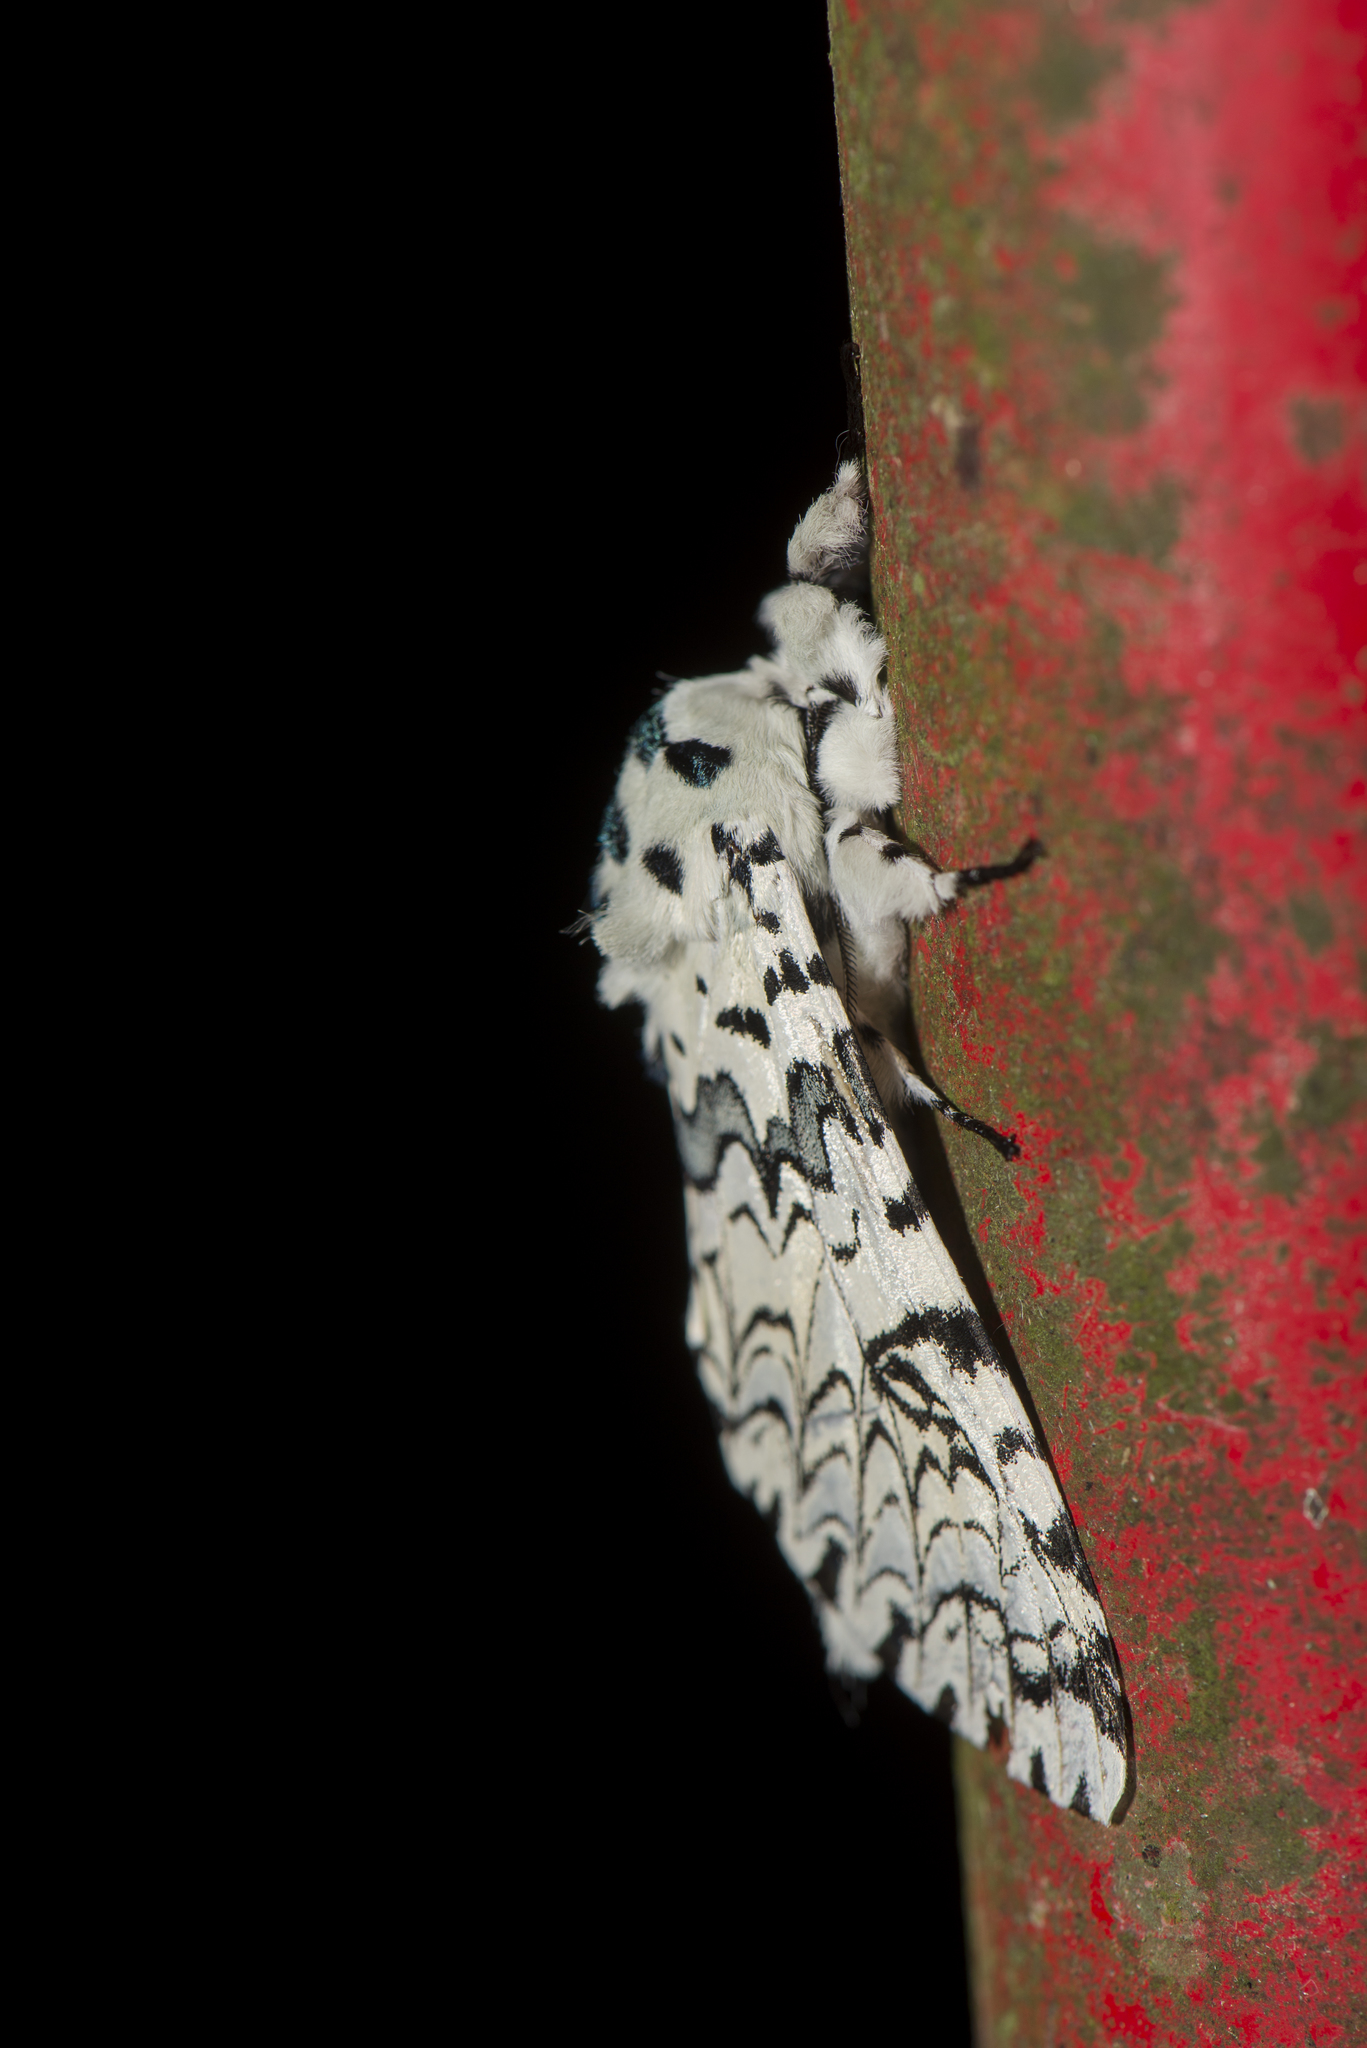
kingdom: Animalia
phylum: Arthropoda
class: Insecta
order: Lepidoptera
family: Notodontidae
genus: Kamalia
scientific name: Kamalia tattakana
